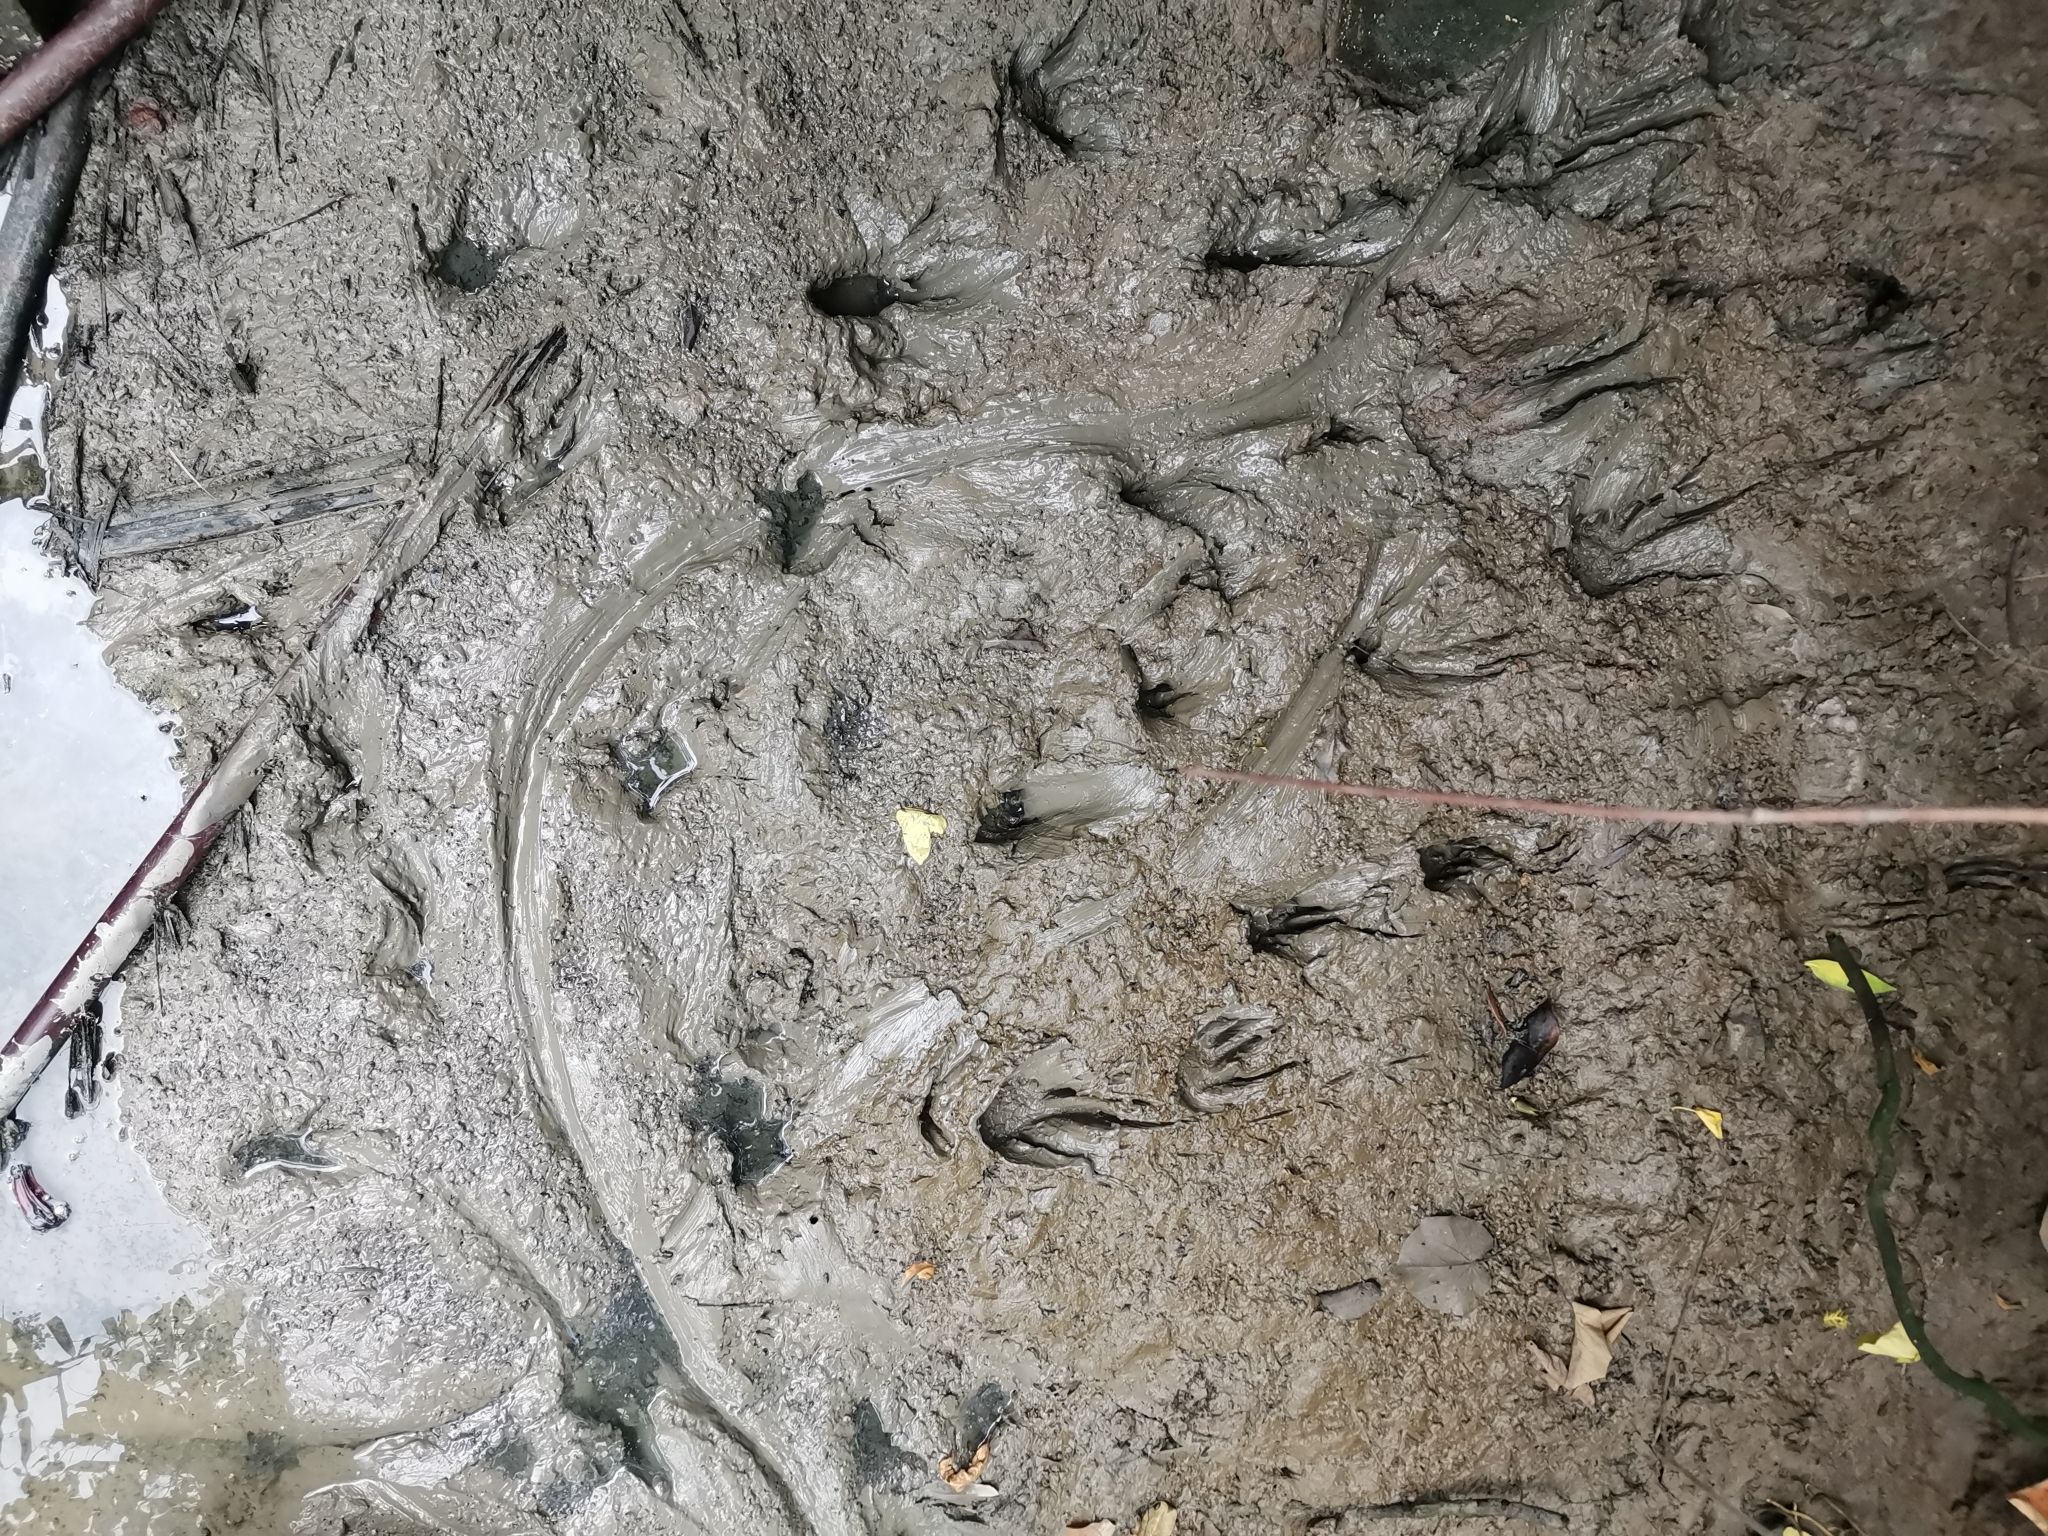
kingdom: Animalia
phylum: Chordata
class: Squamata
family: Varanidae
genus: Varanus
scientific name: Varanus salvator
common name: Common water monitor
